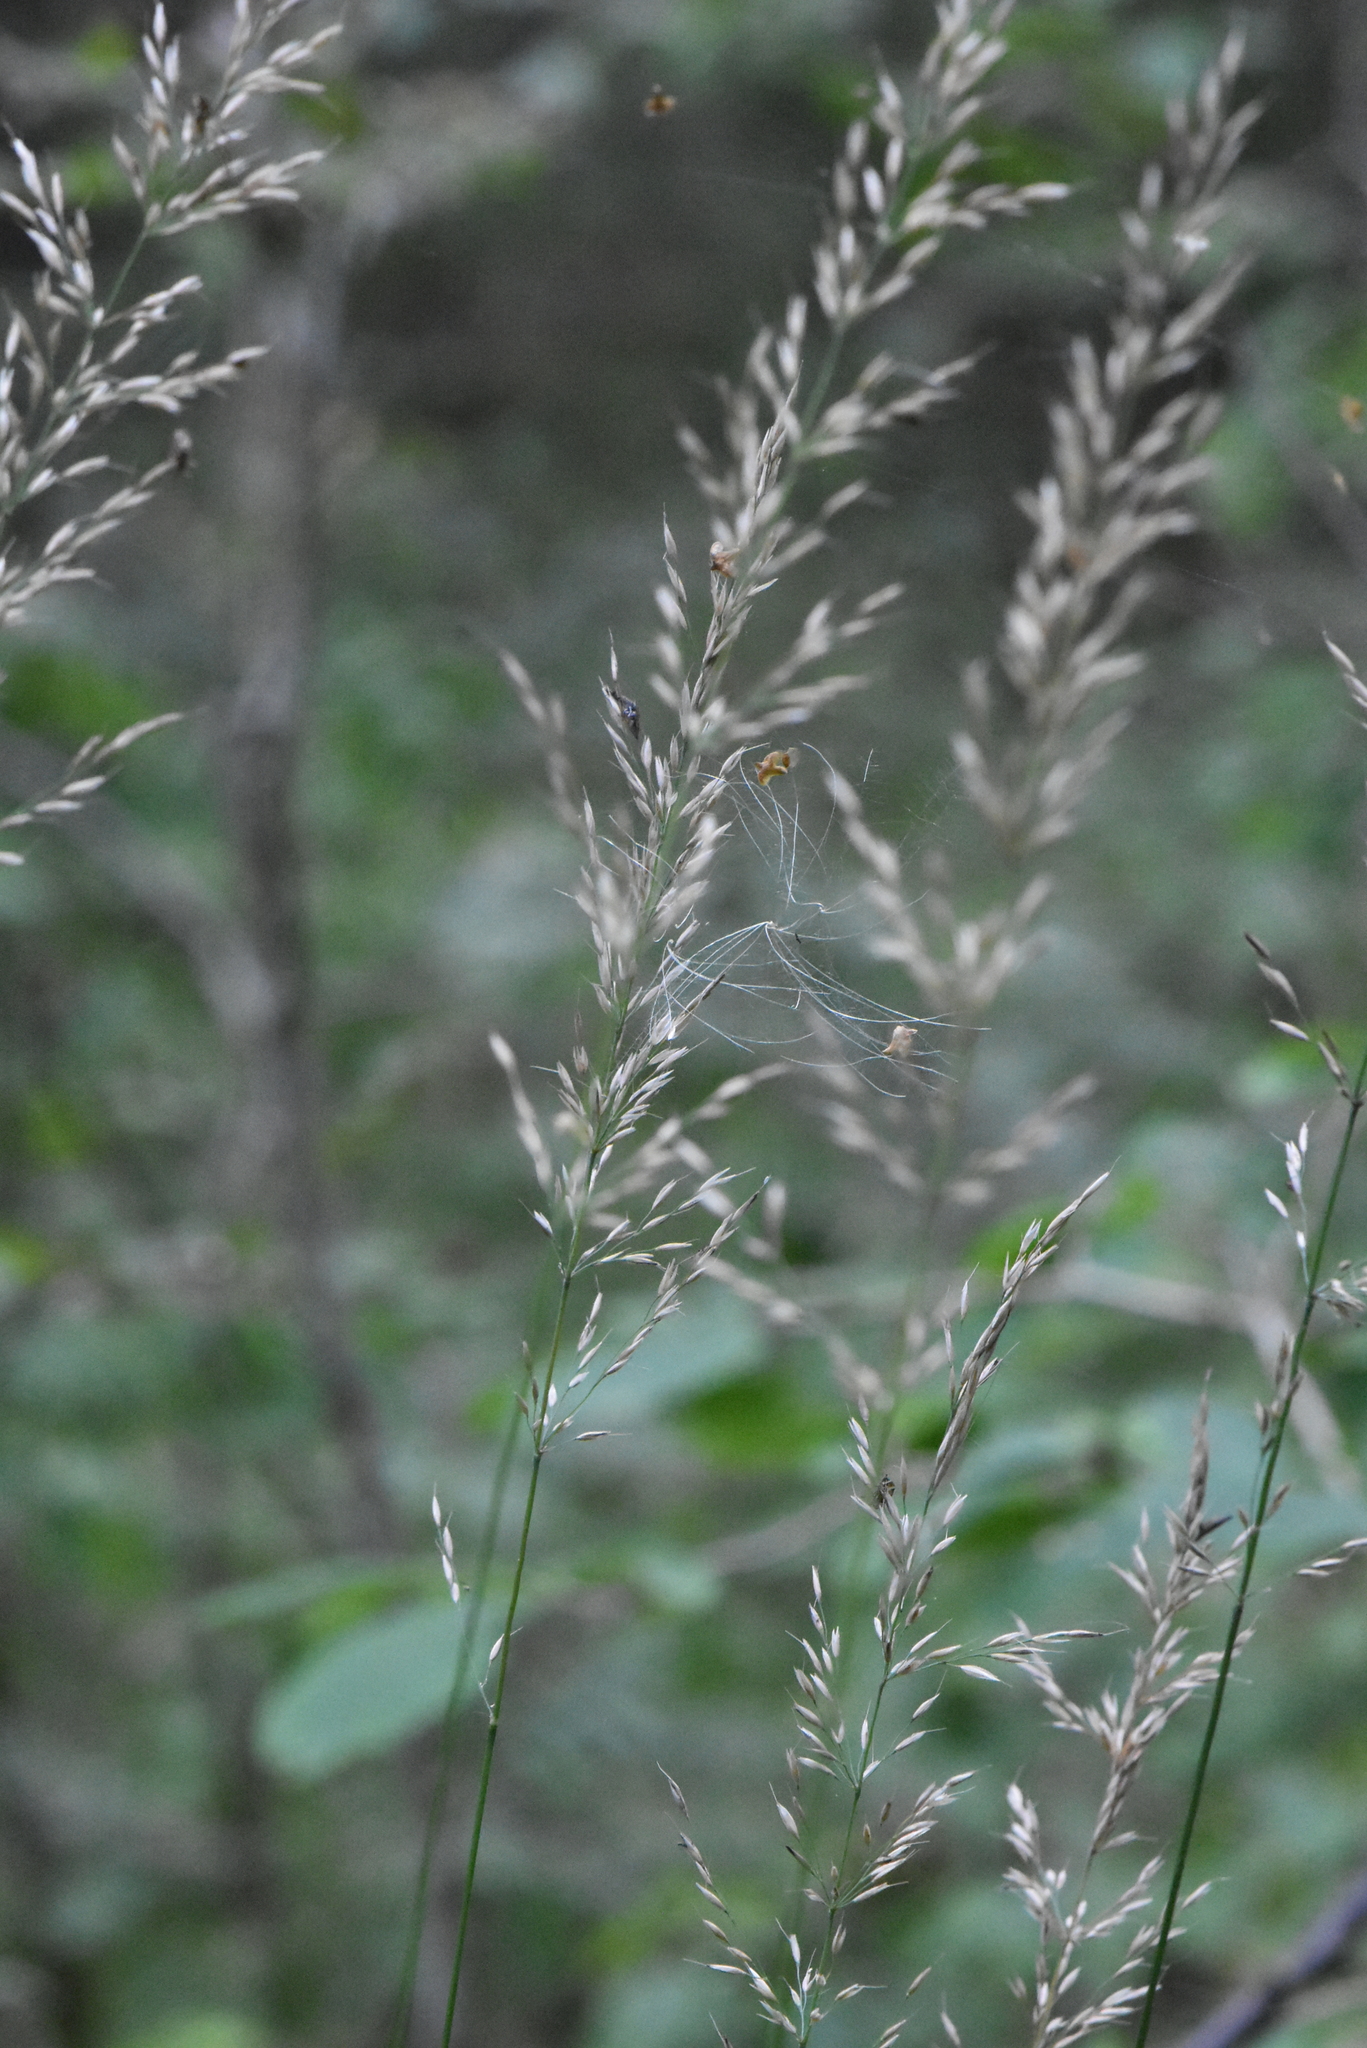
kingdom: Plantae
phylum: Tracheophyta
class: Liliopsida
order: Poales
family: Poaceae
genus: Calamagrostis
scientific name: Calamagrostis arundinacea
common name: Metskastik
